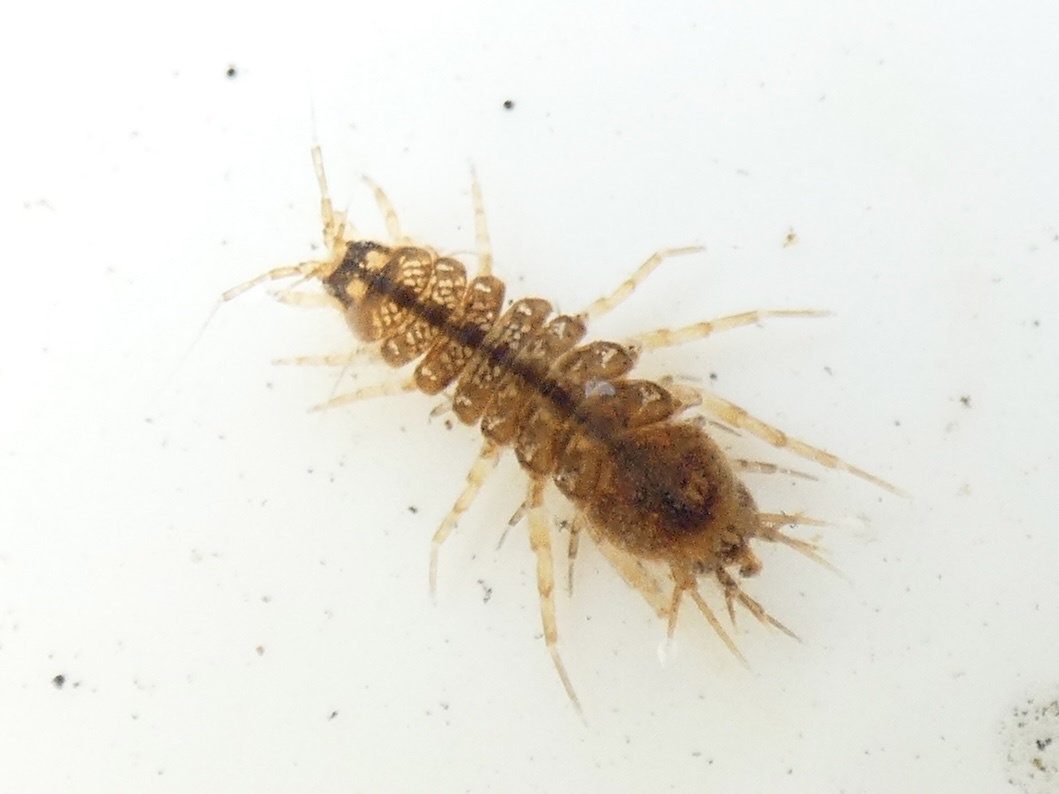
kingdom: Animalia
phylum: Arthropoda
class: Malacostraca
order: Isopoda
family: Asellidae
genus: Asellus
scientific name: Asellus aquaticus
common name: Water hog lice/slaters
